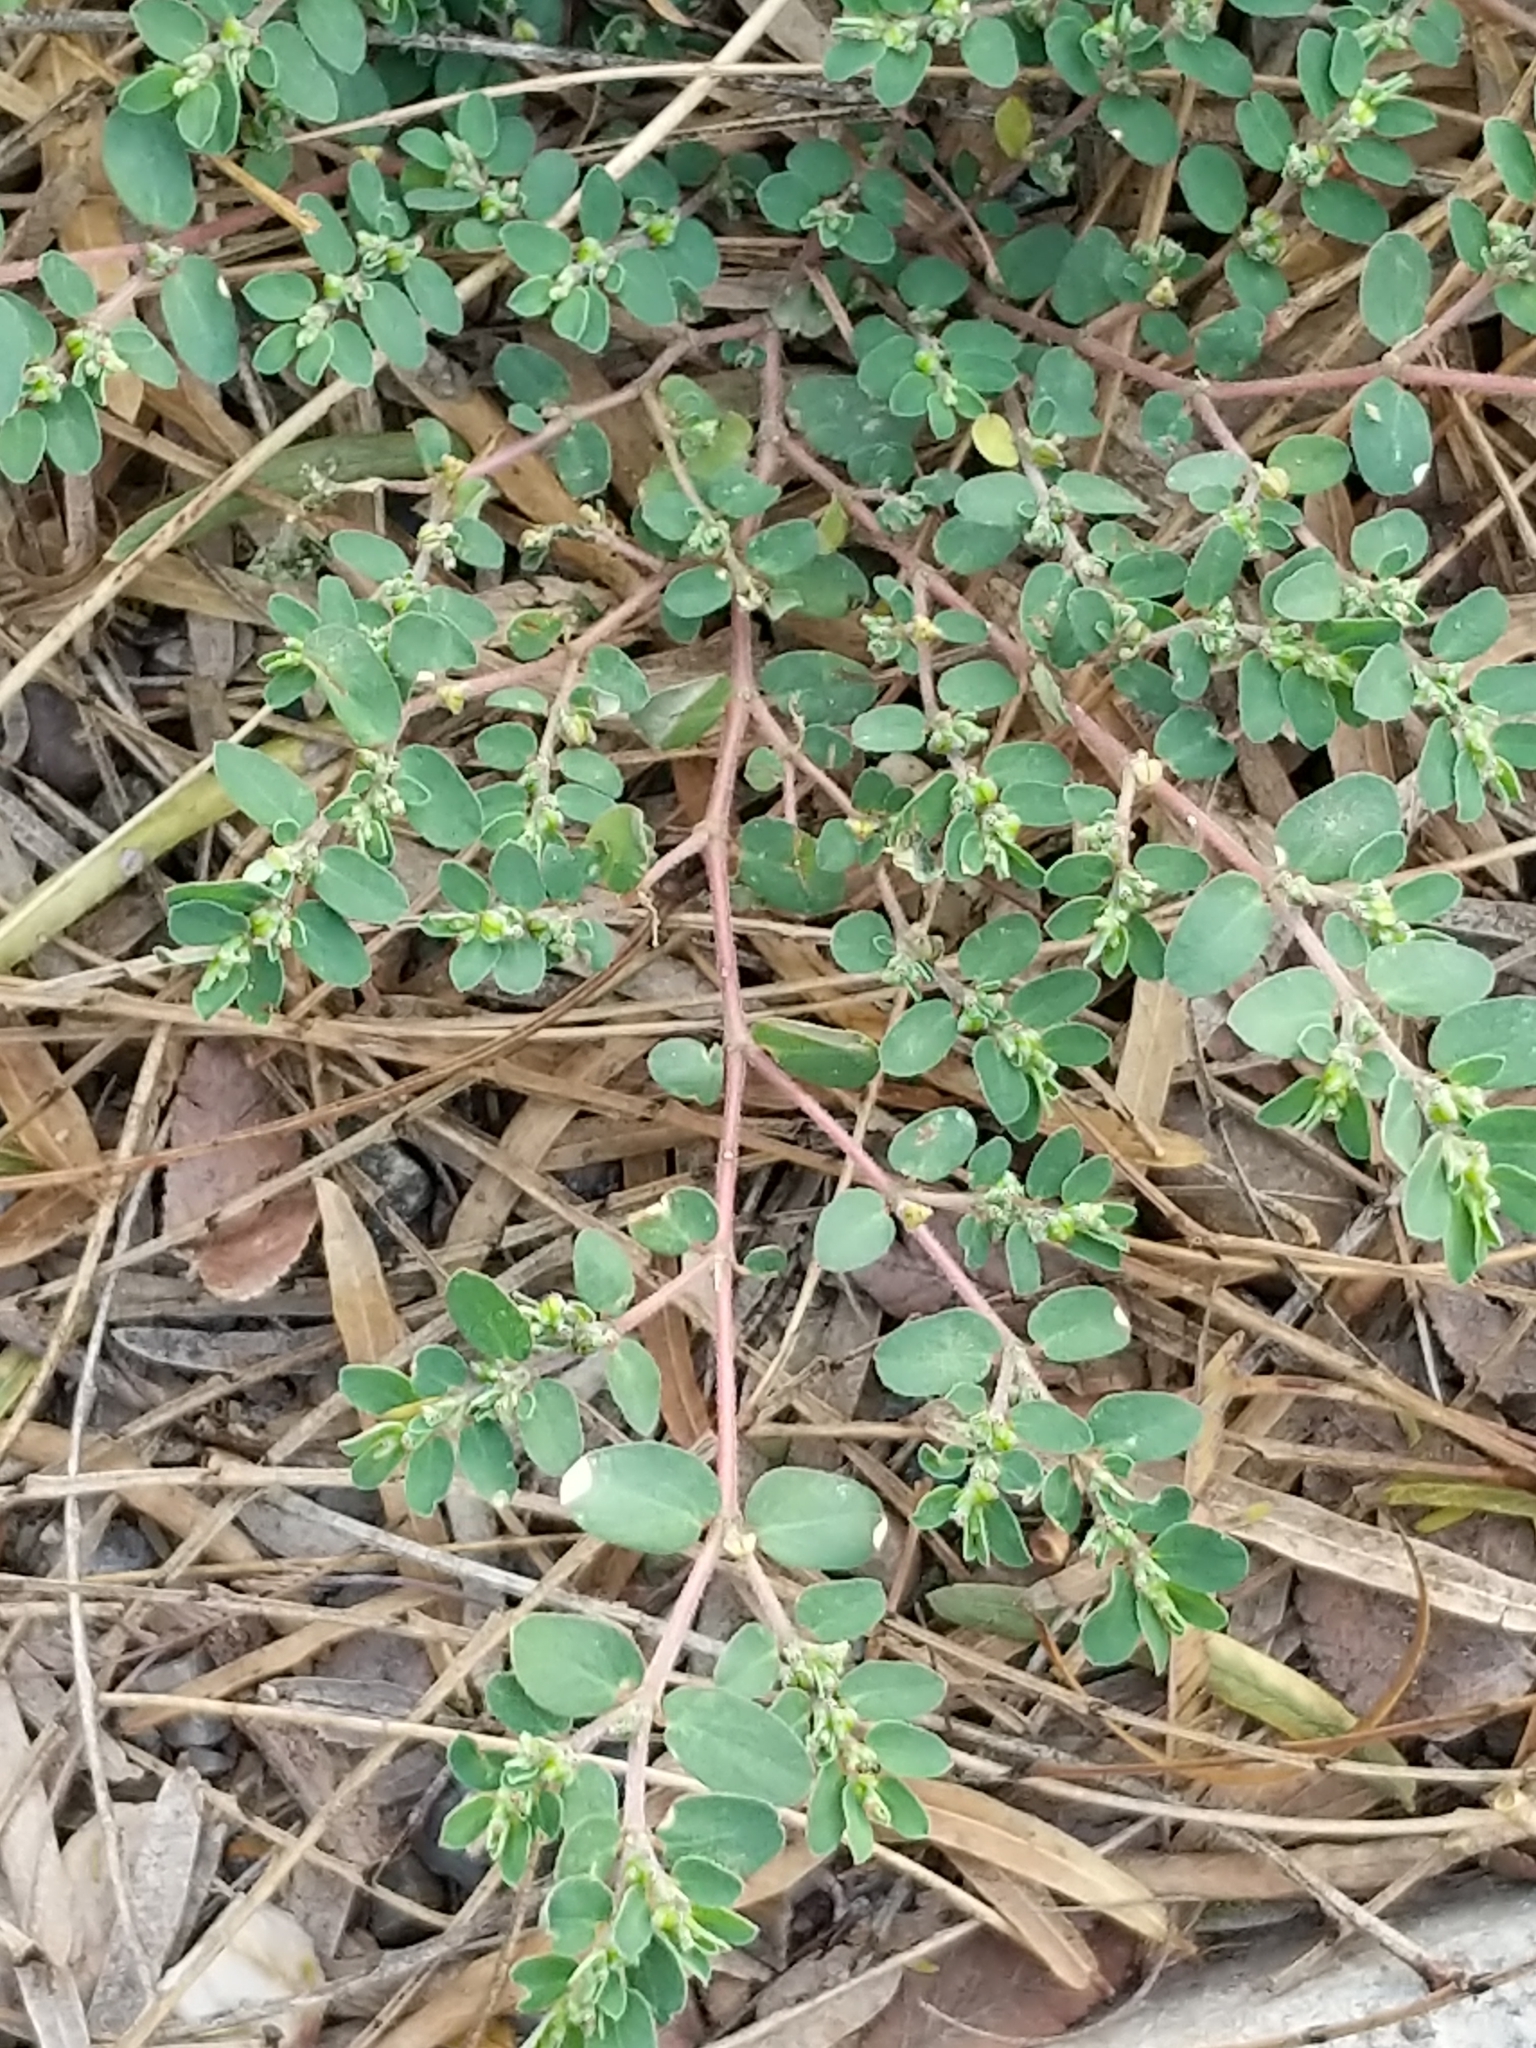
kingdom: Plantae
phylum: Tracheophyta
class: Magnoliopsida
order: Malpighiales
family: Euphorbiaceae
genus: Euphorbia
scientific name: Euphorbia prostrata
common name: Prostrate sandmat
